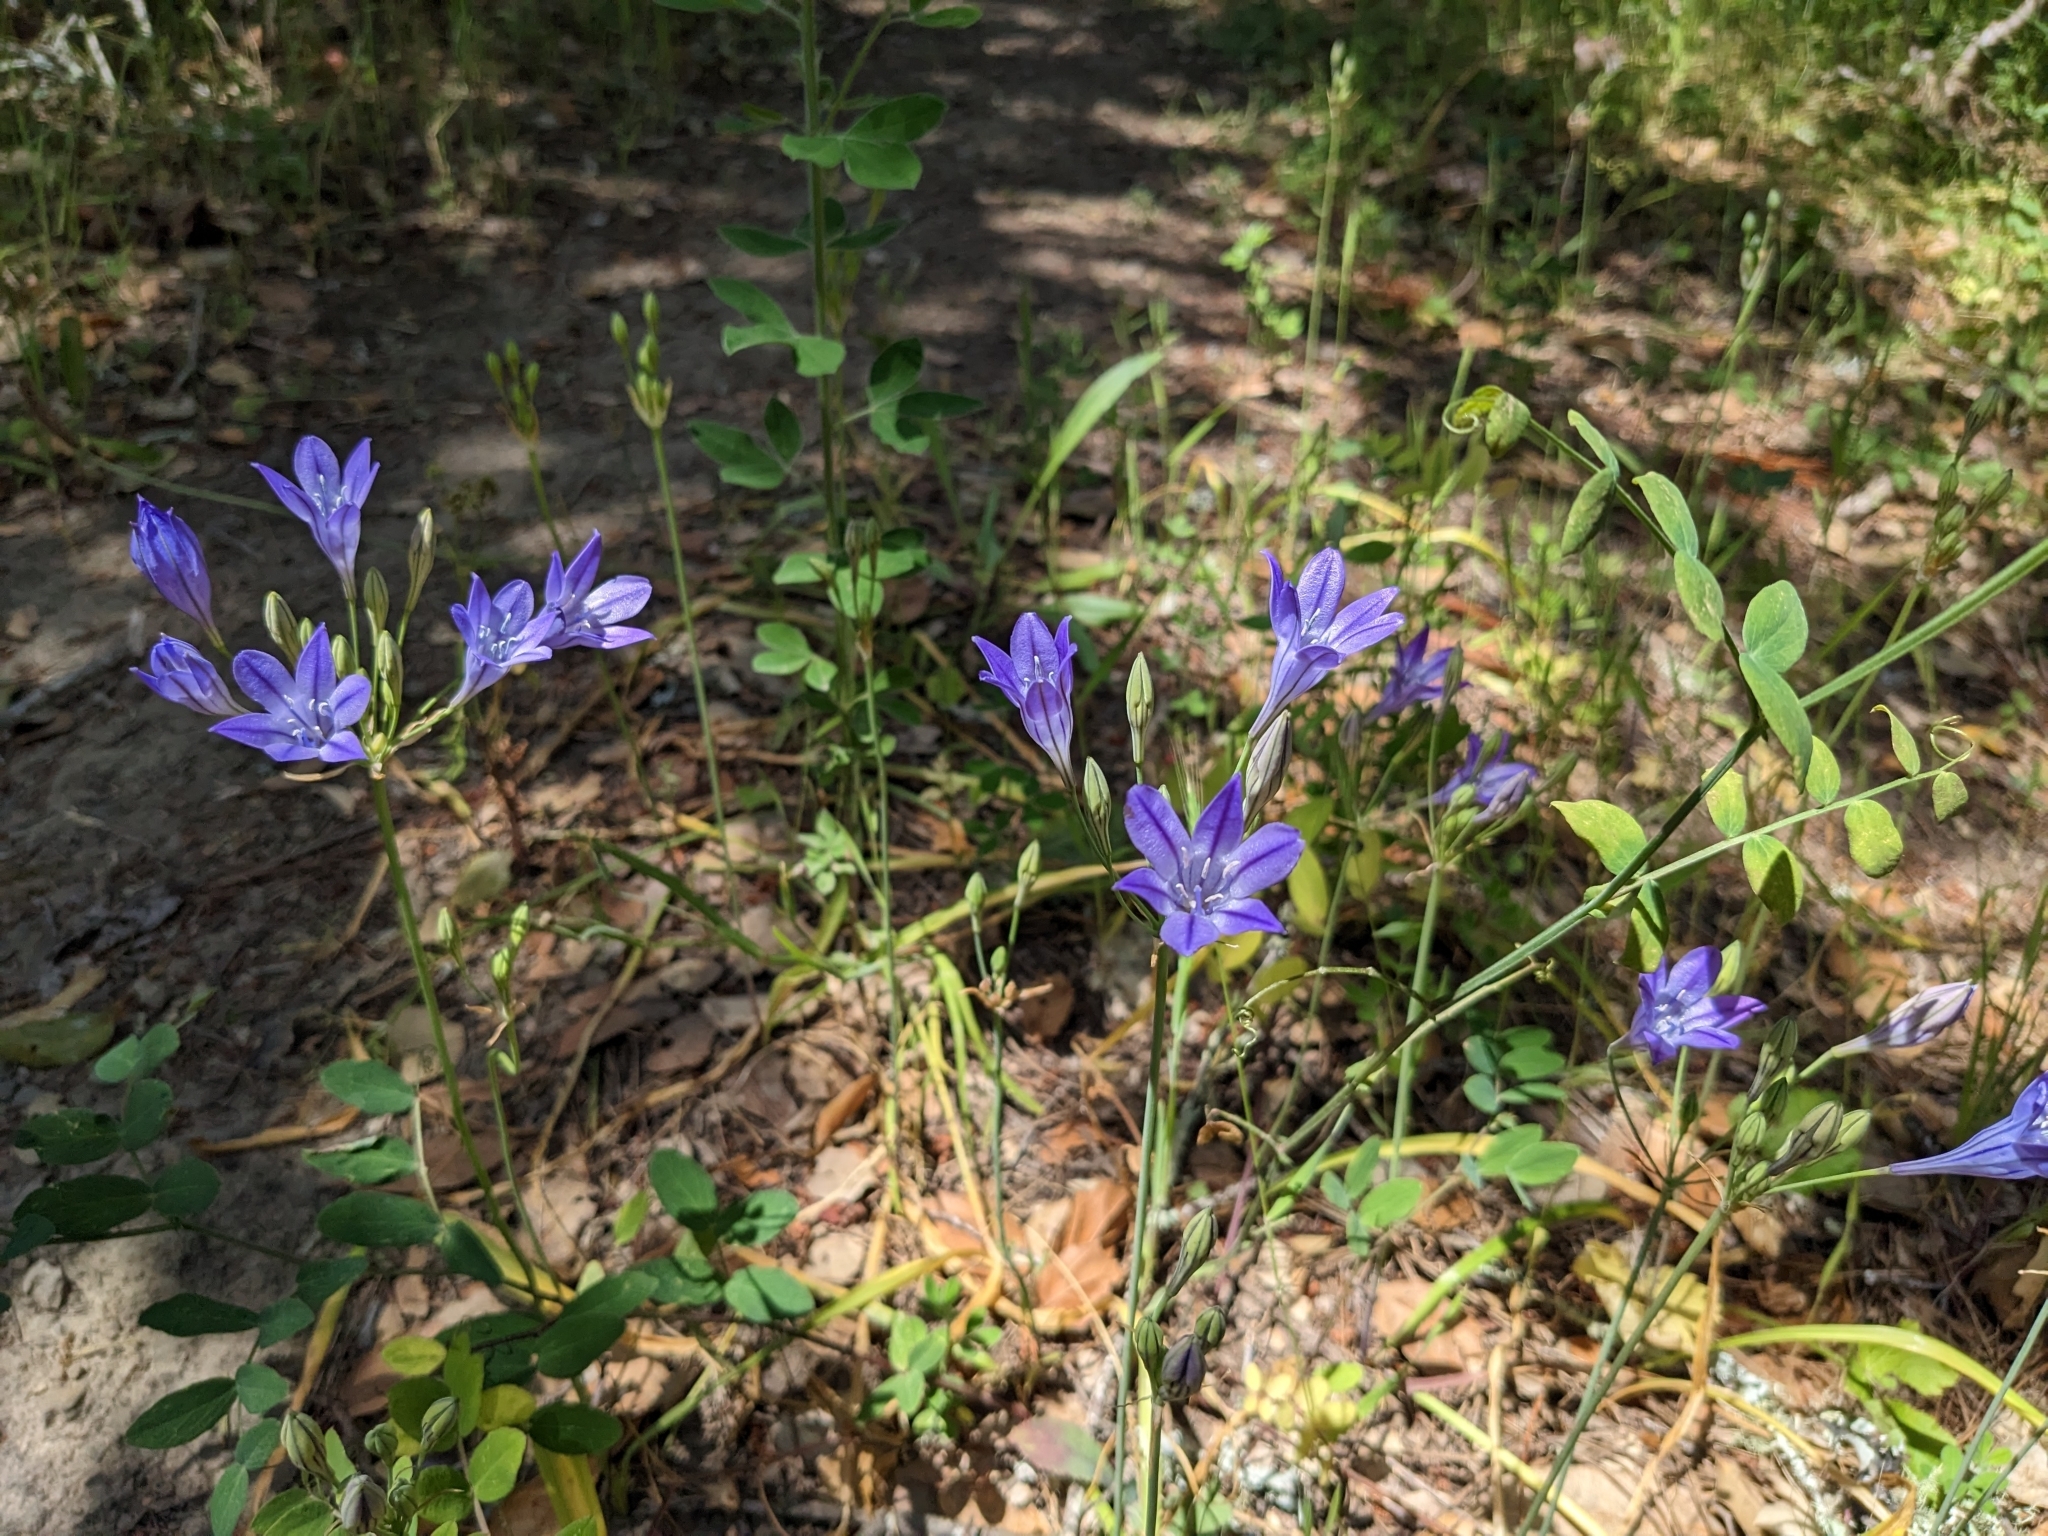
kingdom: Plantae
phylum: Tracheophyta
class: Liliopsida
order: Asparagales
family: Asparagaceae
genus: Triteleia
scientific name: Triteleia laxa
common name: Triplet-lily
